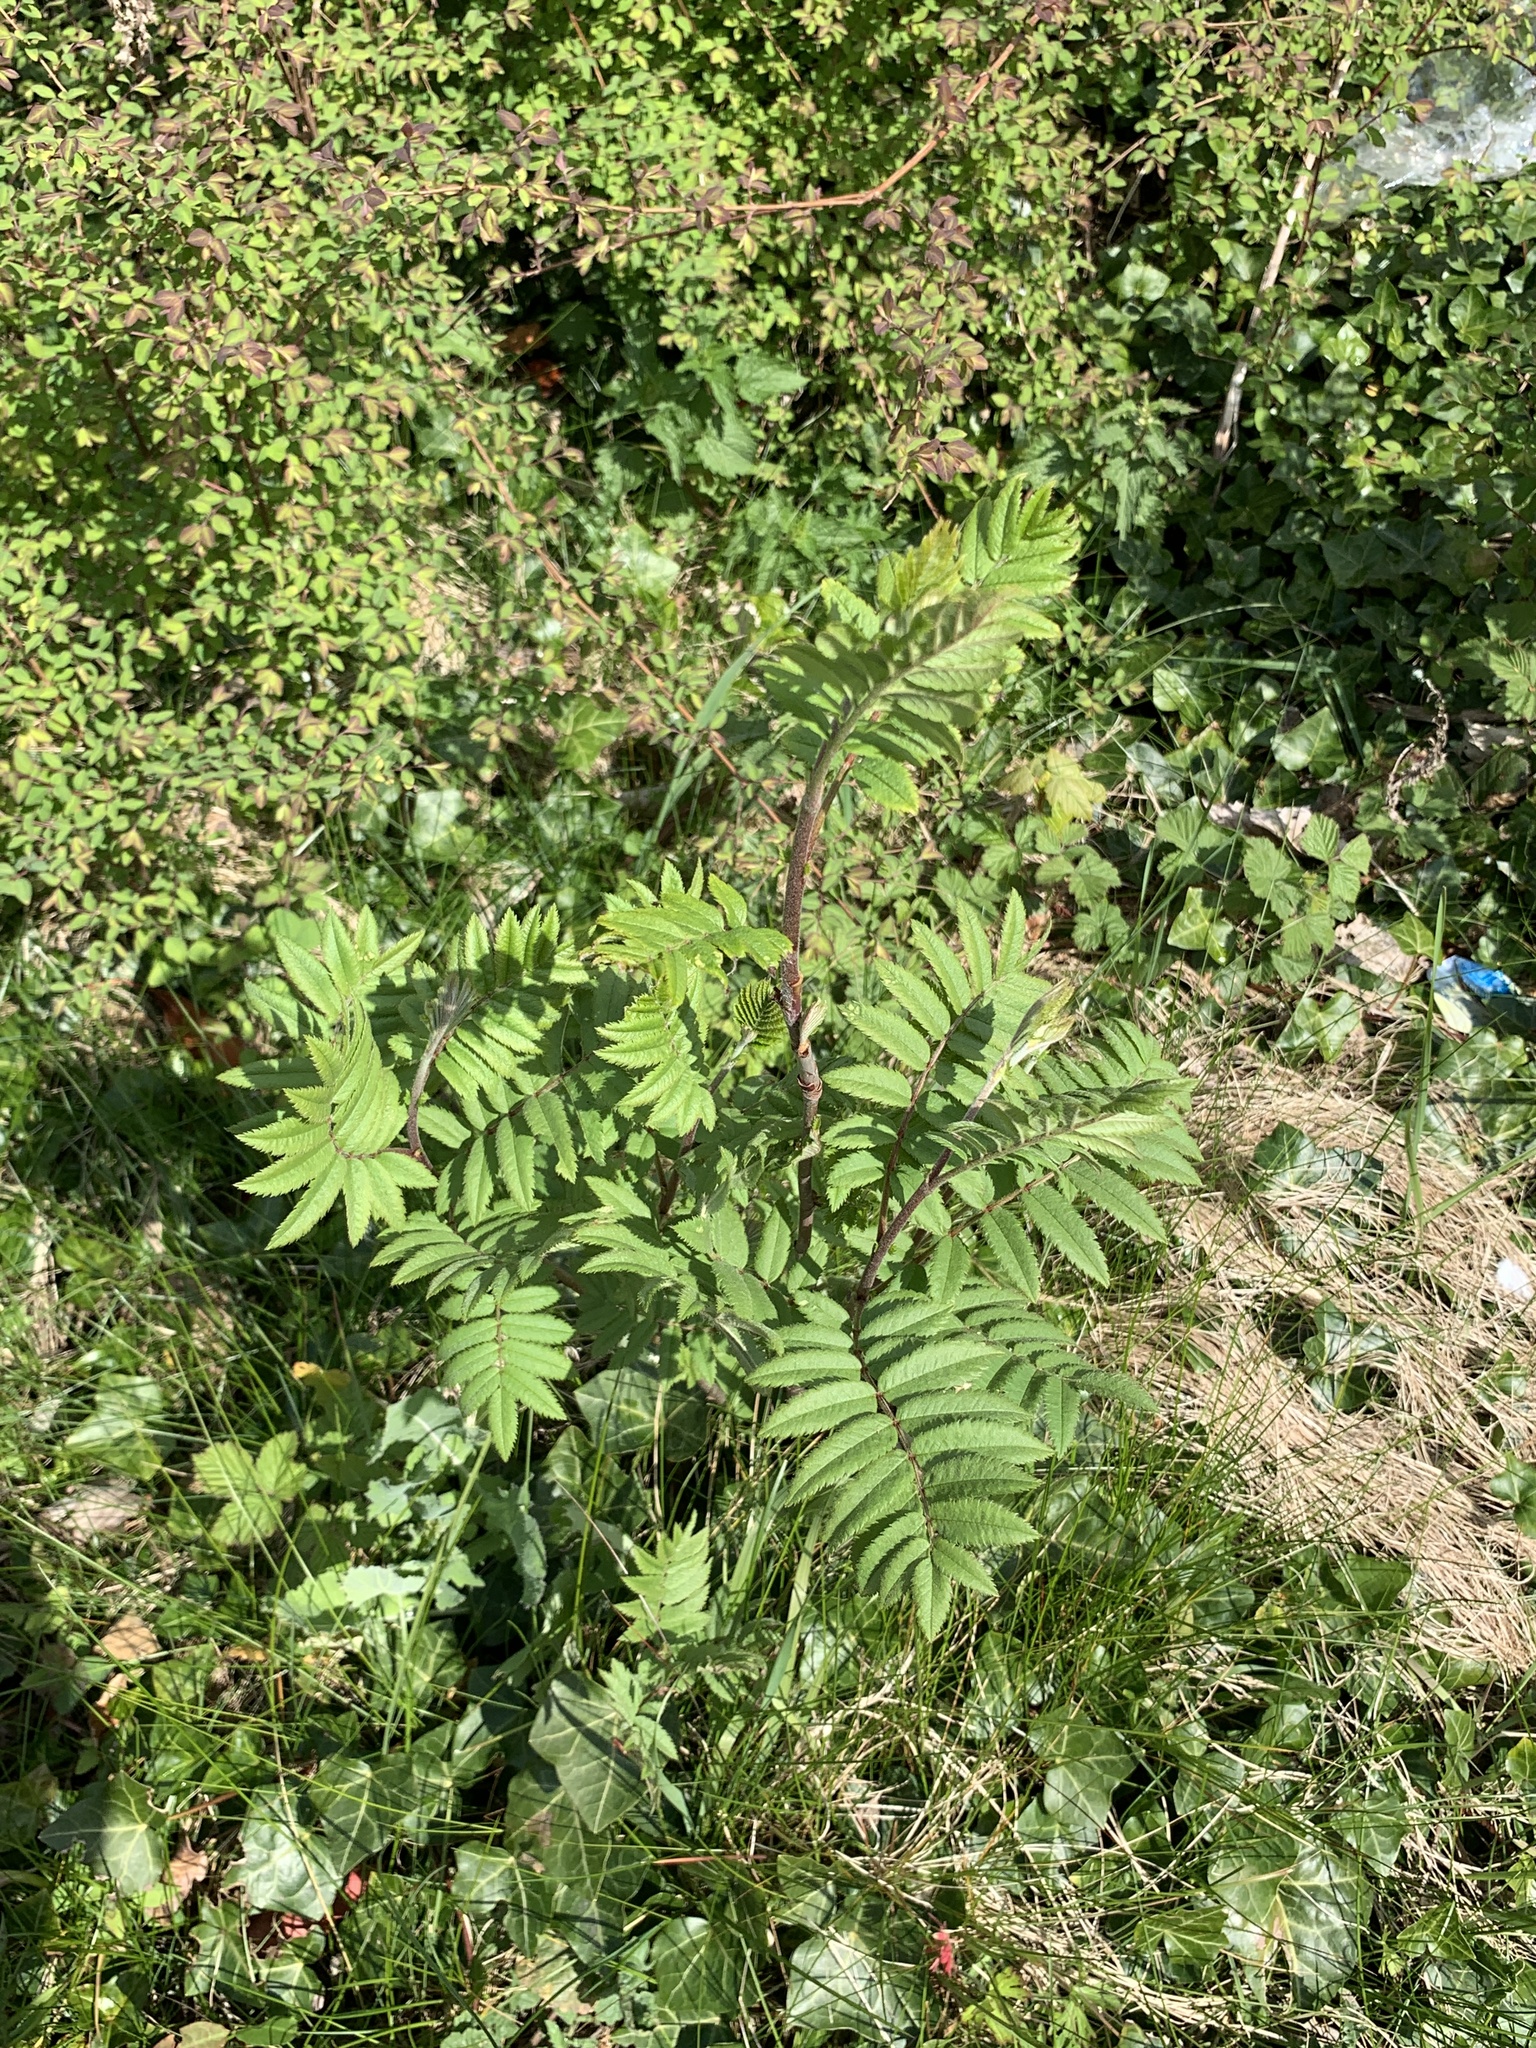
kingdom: Plantae
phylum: Tracheophyta
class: Magnoliopsida
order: Rosales
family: Rosaceae
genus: Sorbus
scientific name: Sorbus aucuparia
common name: Rowan
